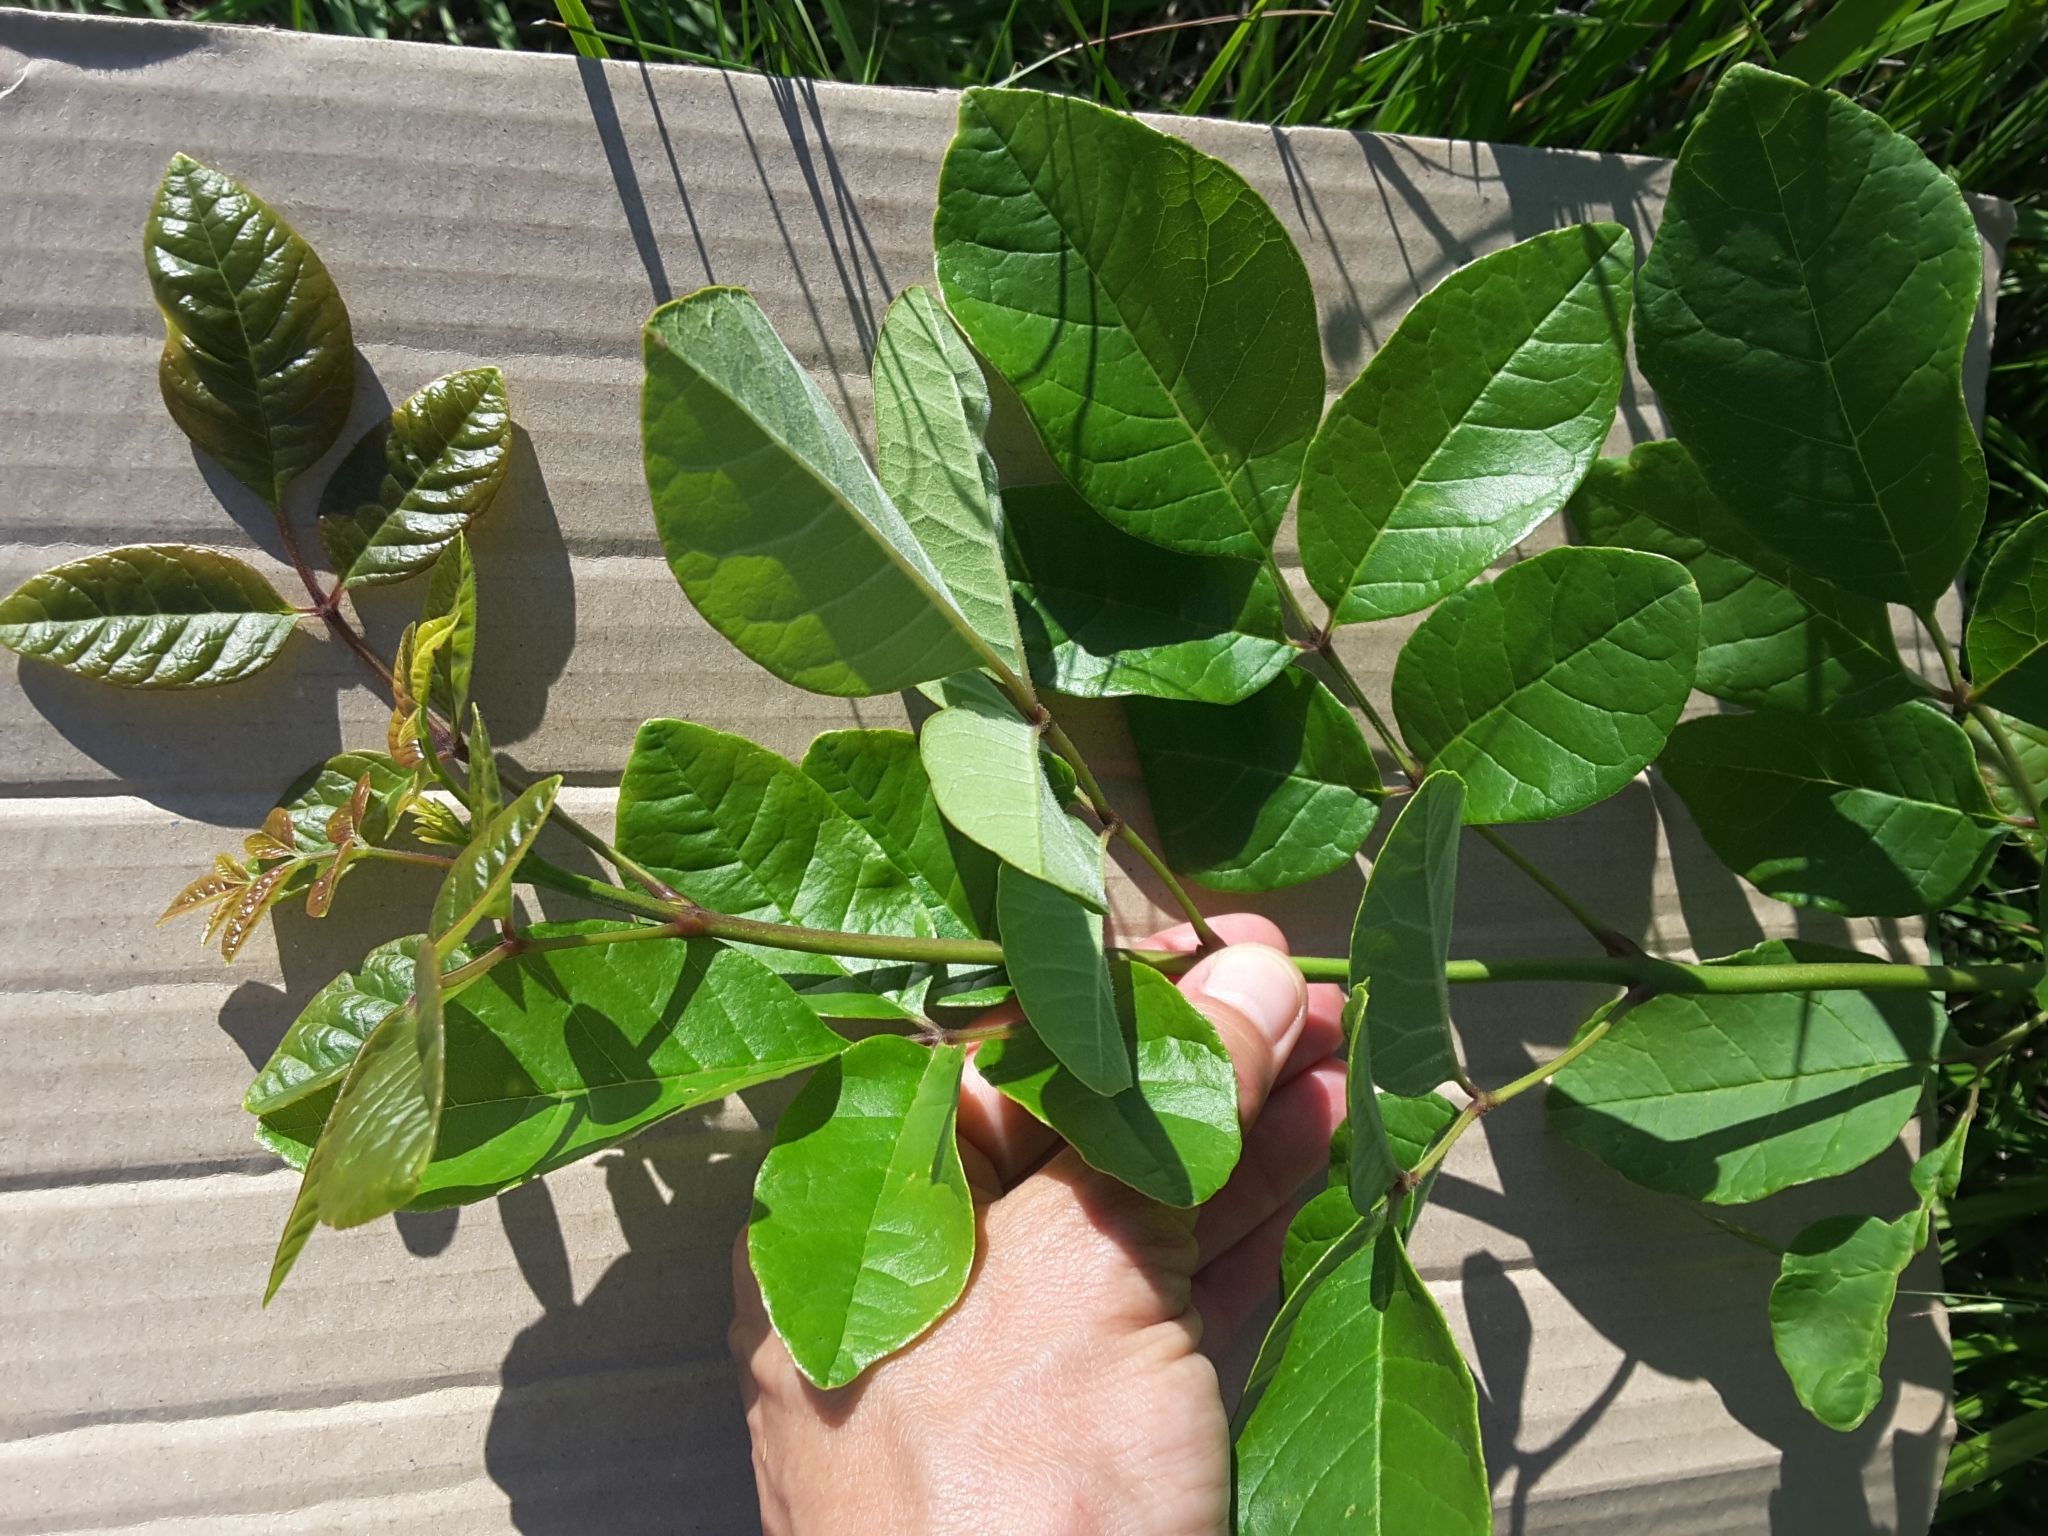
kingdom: Plantae
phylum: Tracheophyta
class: Magnoliopsida
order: Lamiales
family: Oleaceae
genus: Fraxinus
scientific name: Fraxinus albicans
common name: Texas ash
